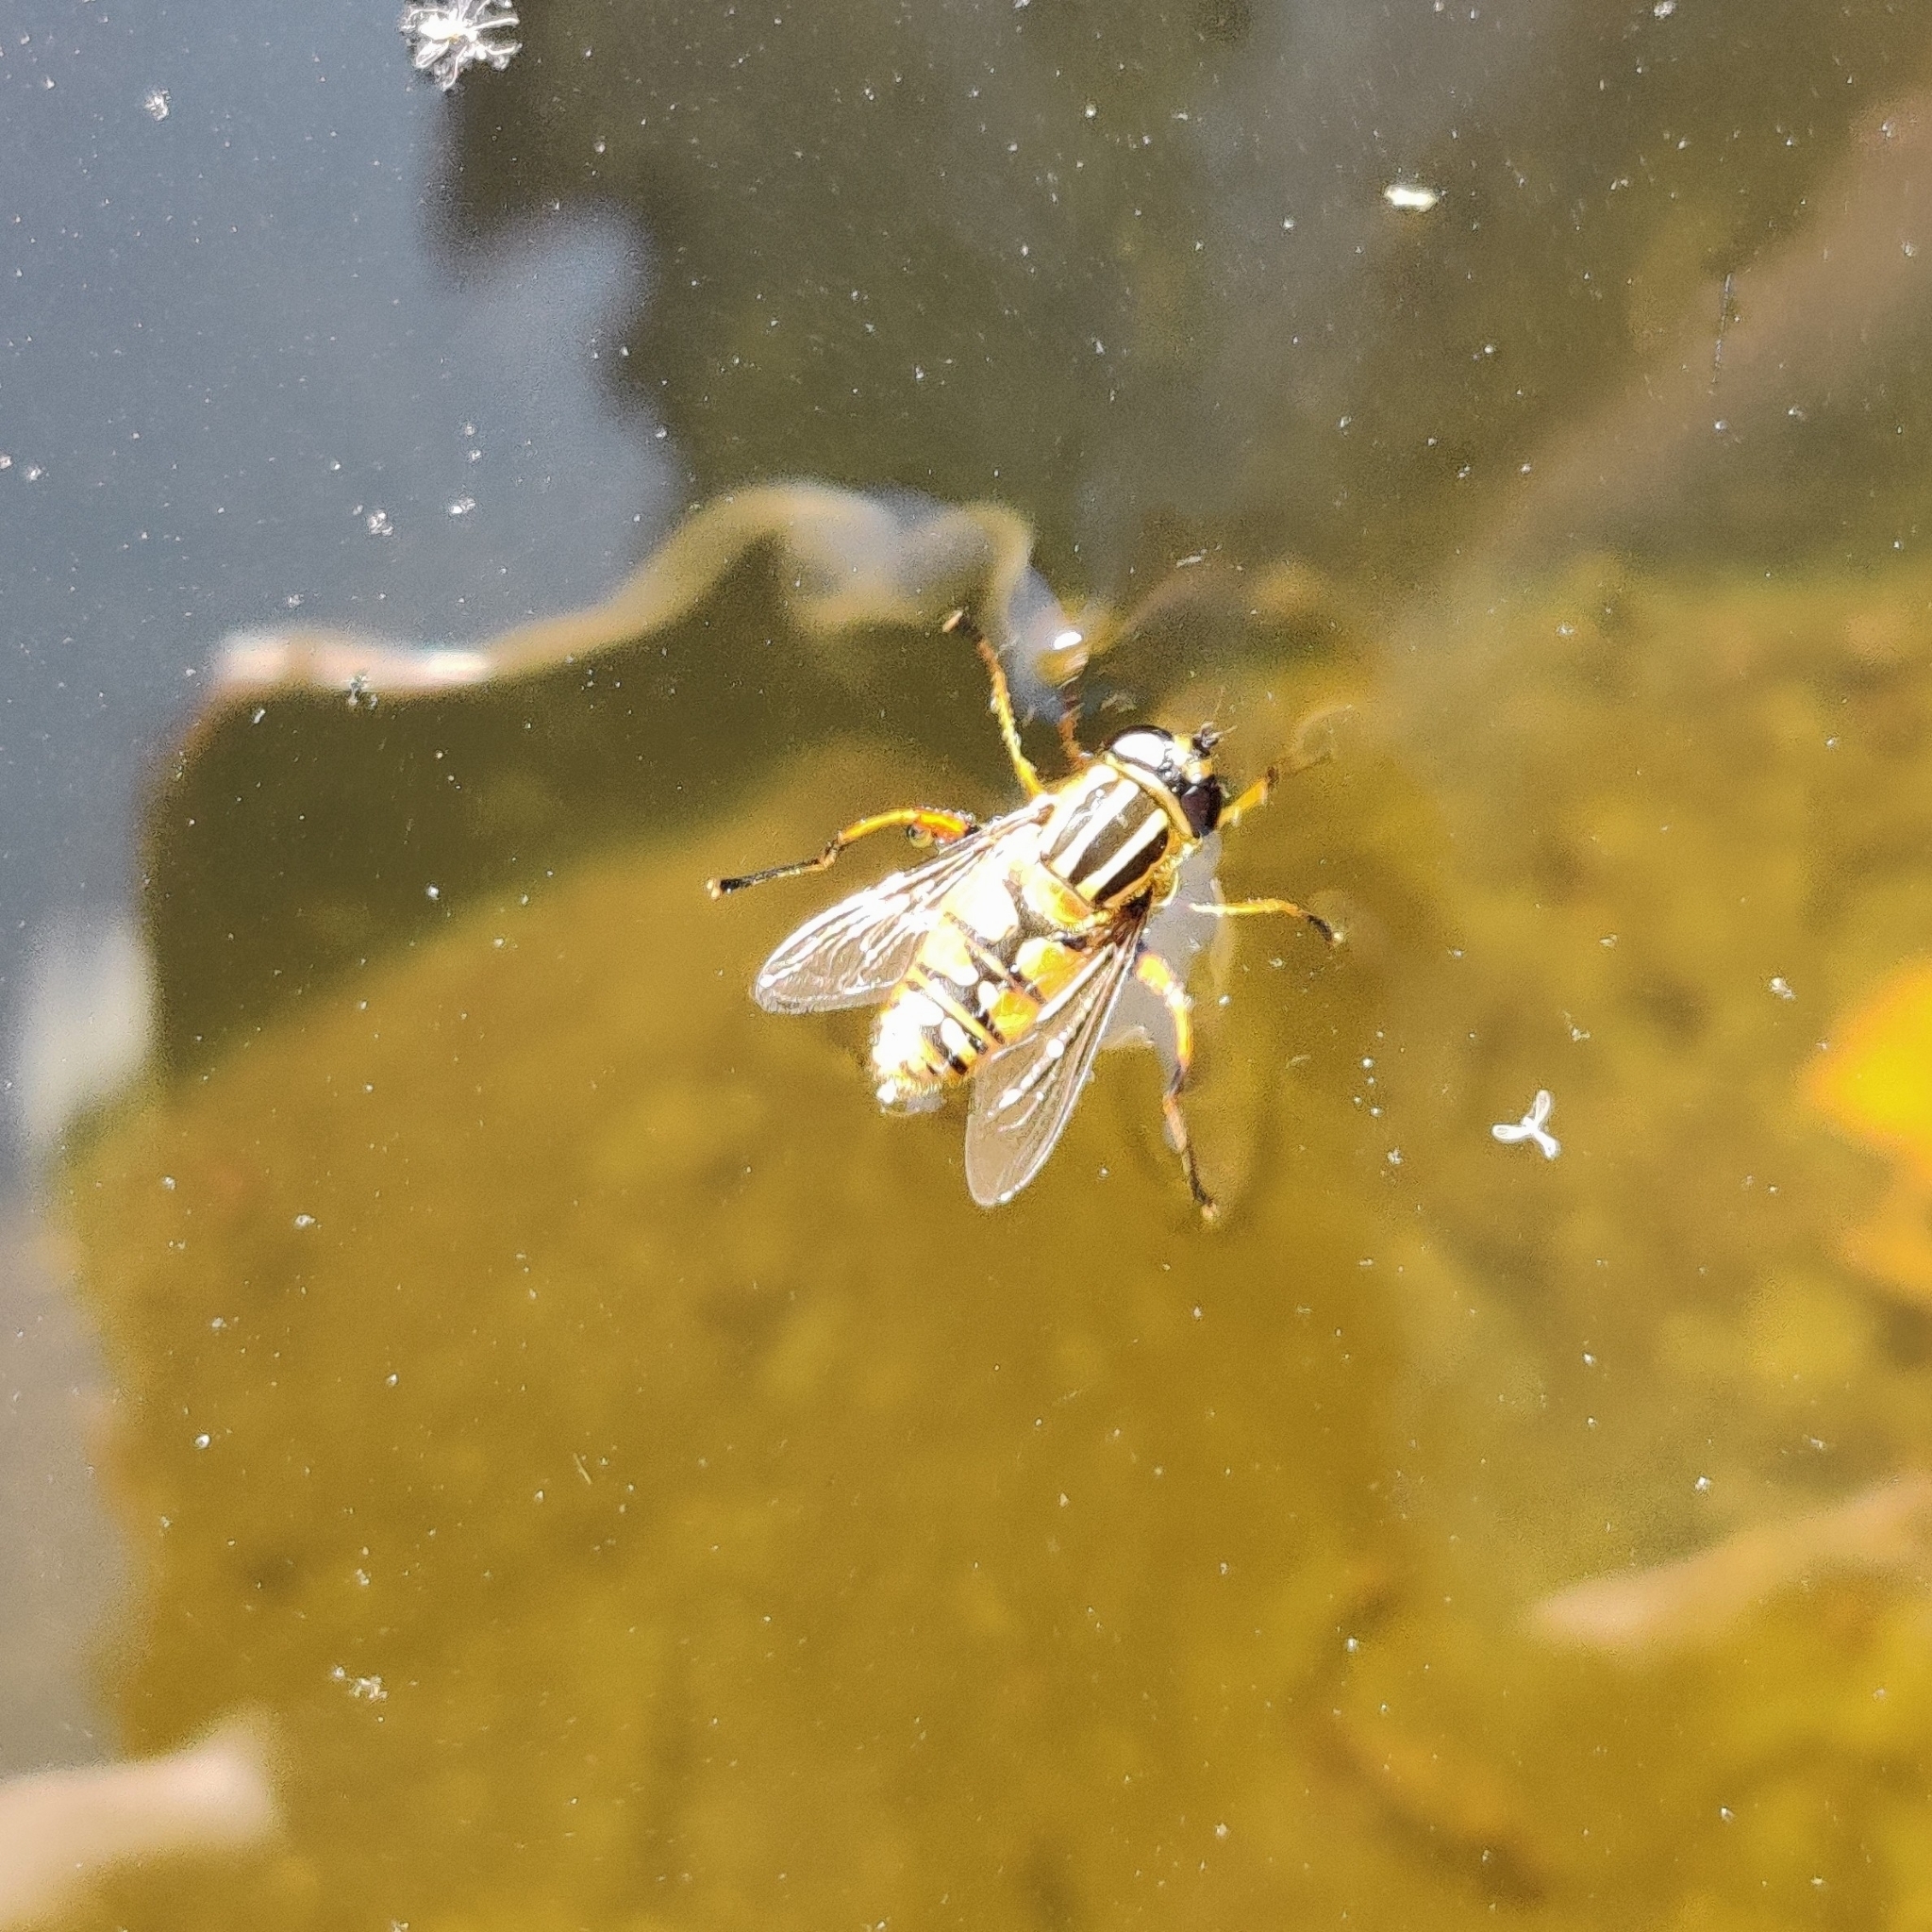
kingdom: Animalia
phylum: Arthropoda
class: Insecta
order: Diptera
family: Syrphidae
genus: Helophilus
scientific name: Helophilus pendulus
